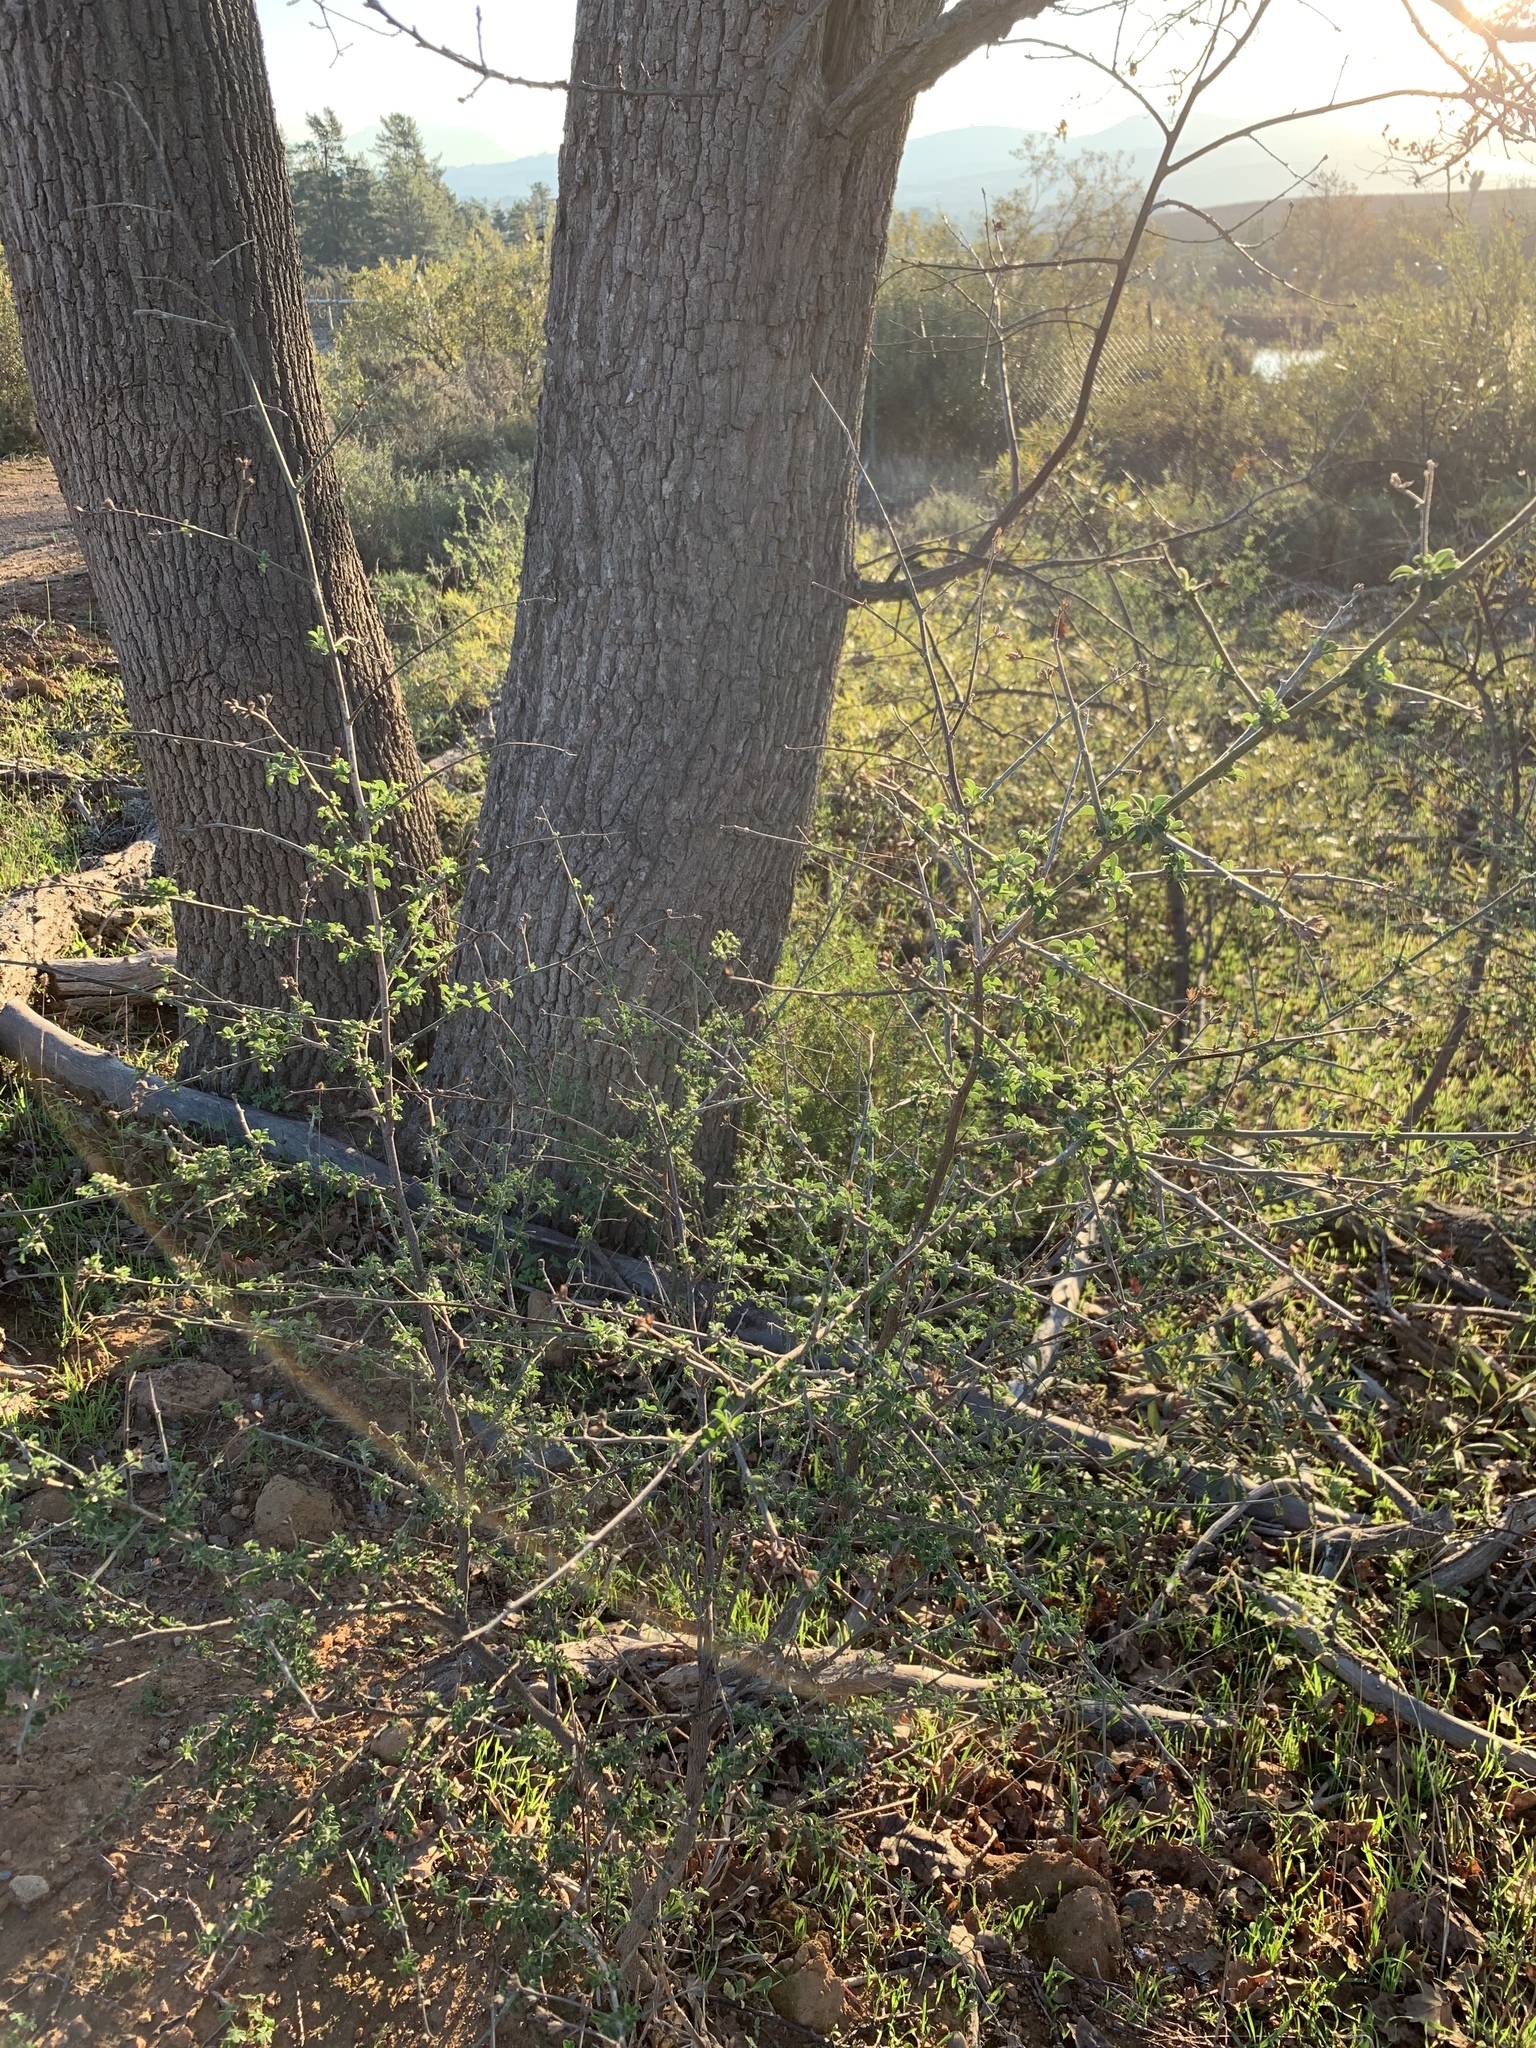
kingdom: Plantae
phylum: Tracheophyta
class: Magnoliopsida
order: Fabales
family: Fabaceae
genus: Psoralea
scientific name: Psoralea hirta
